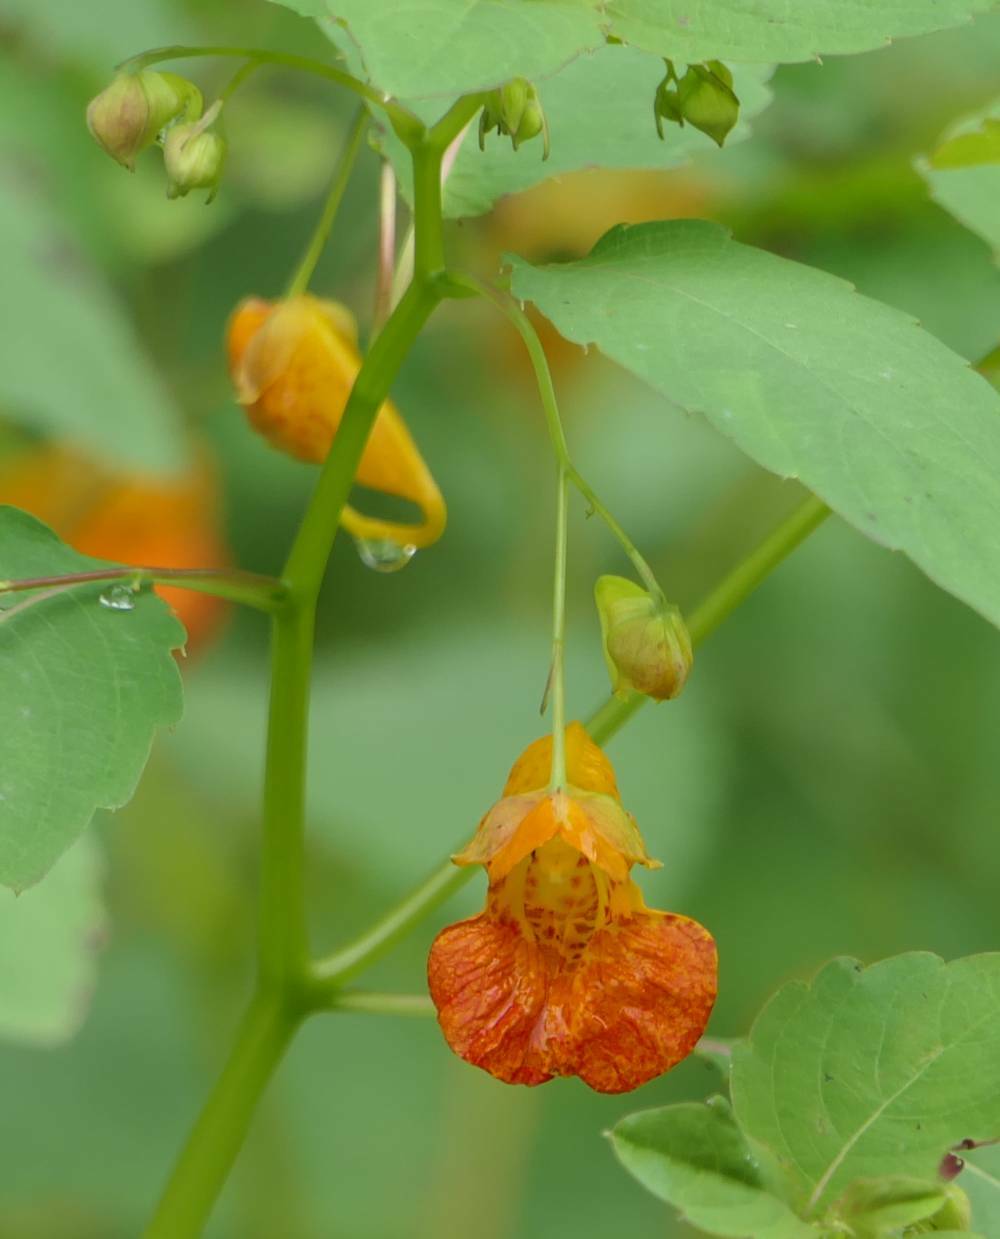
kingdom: Plantae
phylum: Tracheophyta
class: Magnoliopsida
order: Ericales
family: Balsaminaceae
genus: Impatiens
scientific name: Impatiens capensis
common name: Orange balsam
